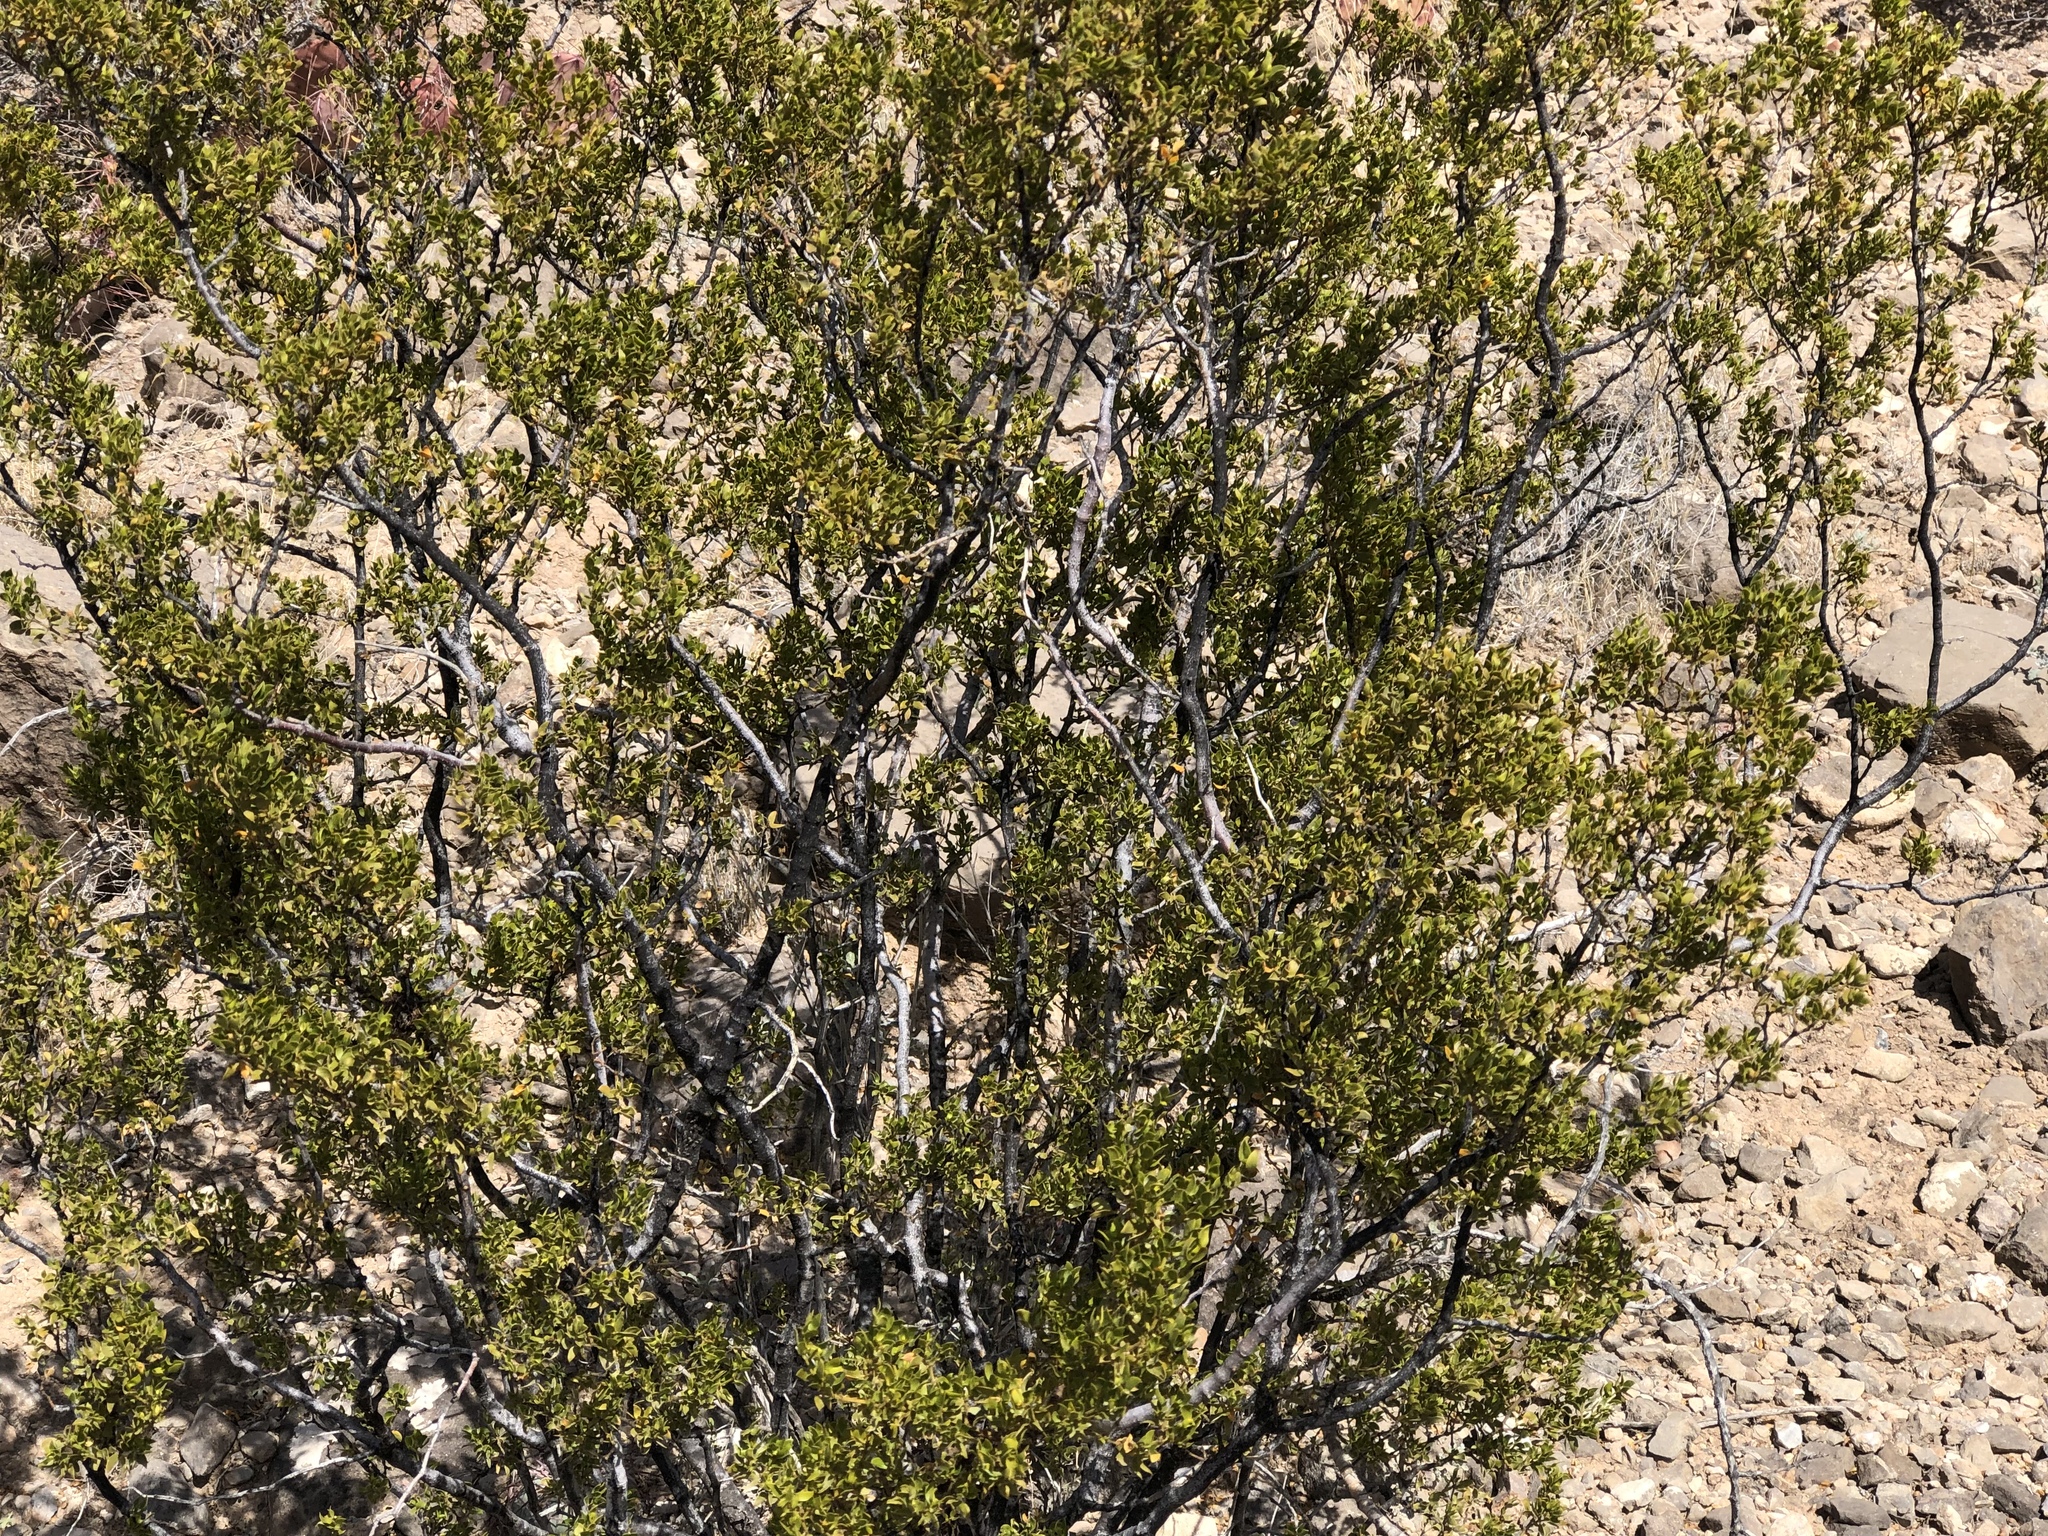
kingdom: Plantae
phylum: Tracheophyta
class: Magnoliopsida
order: Zygophyllales
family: Zygophyllaceae
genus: Larrea
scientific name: Larrea tridentata
